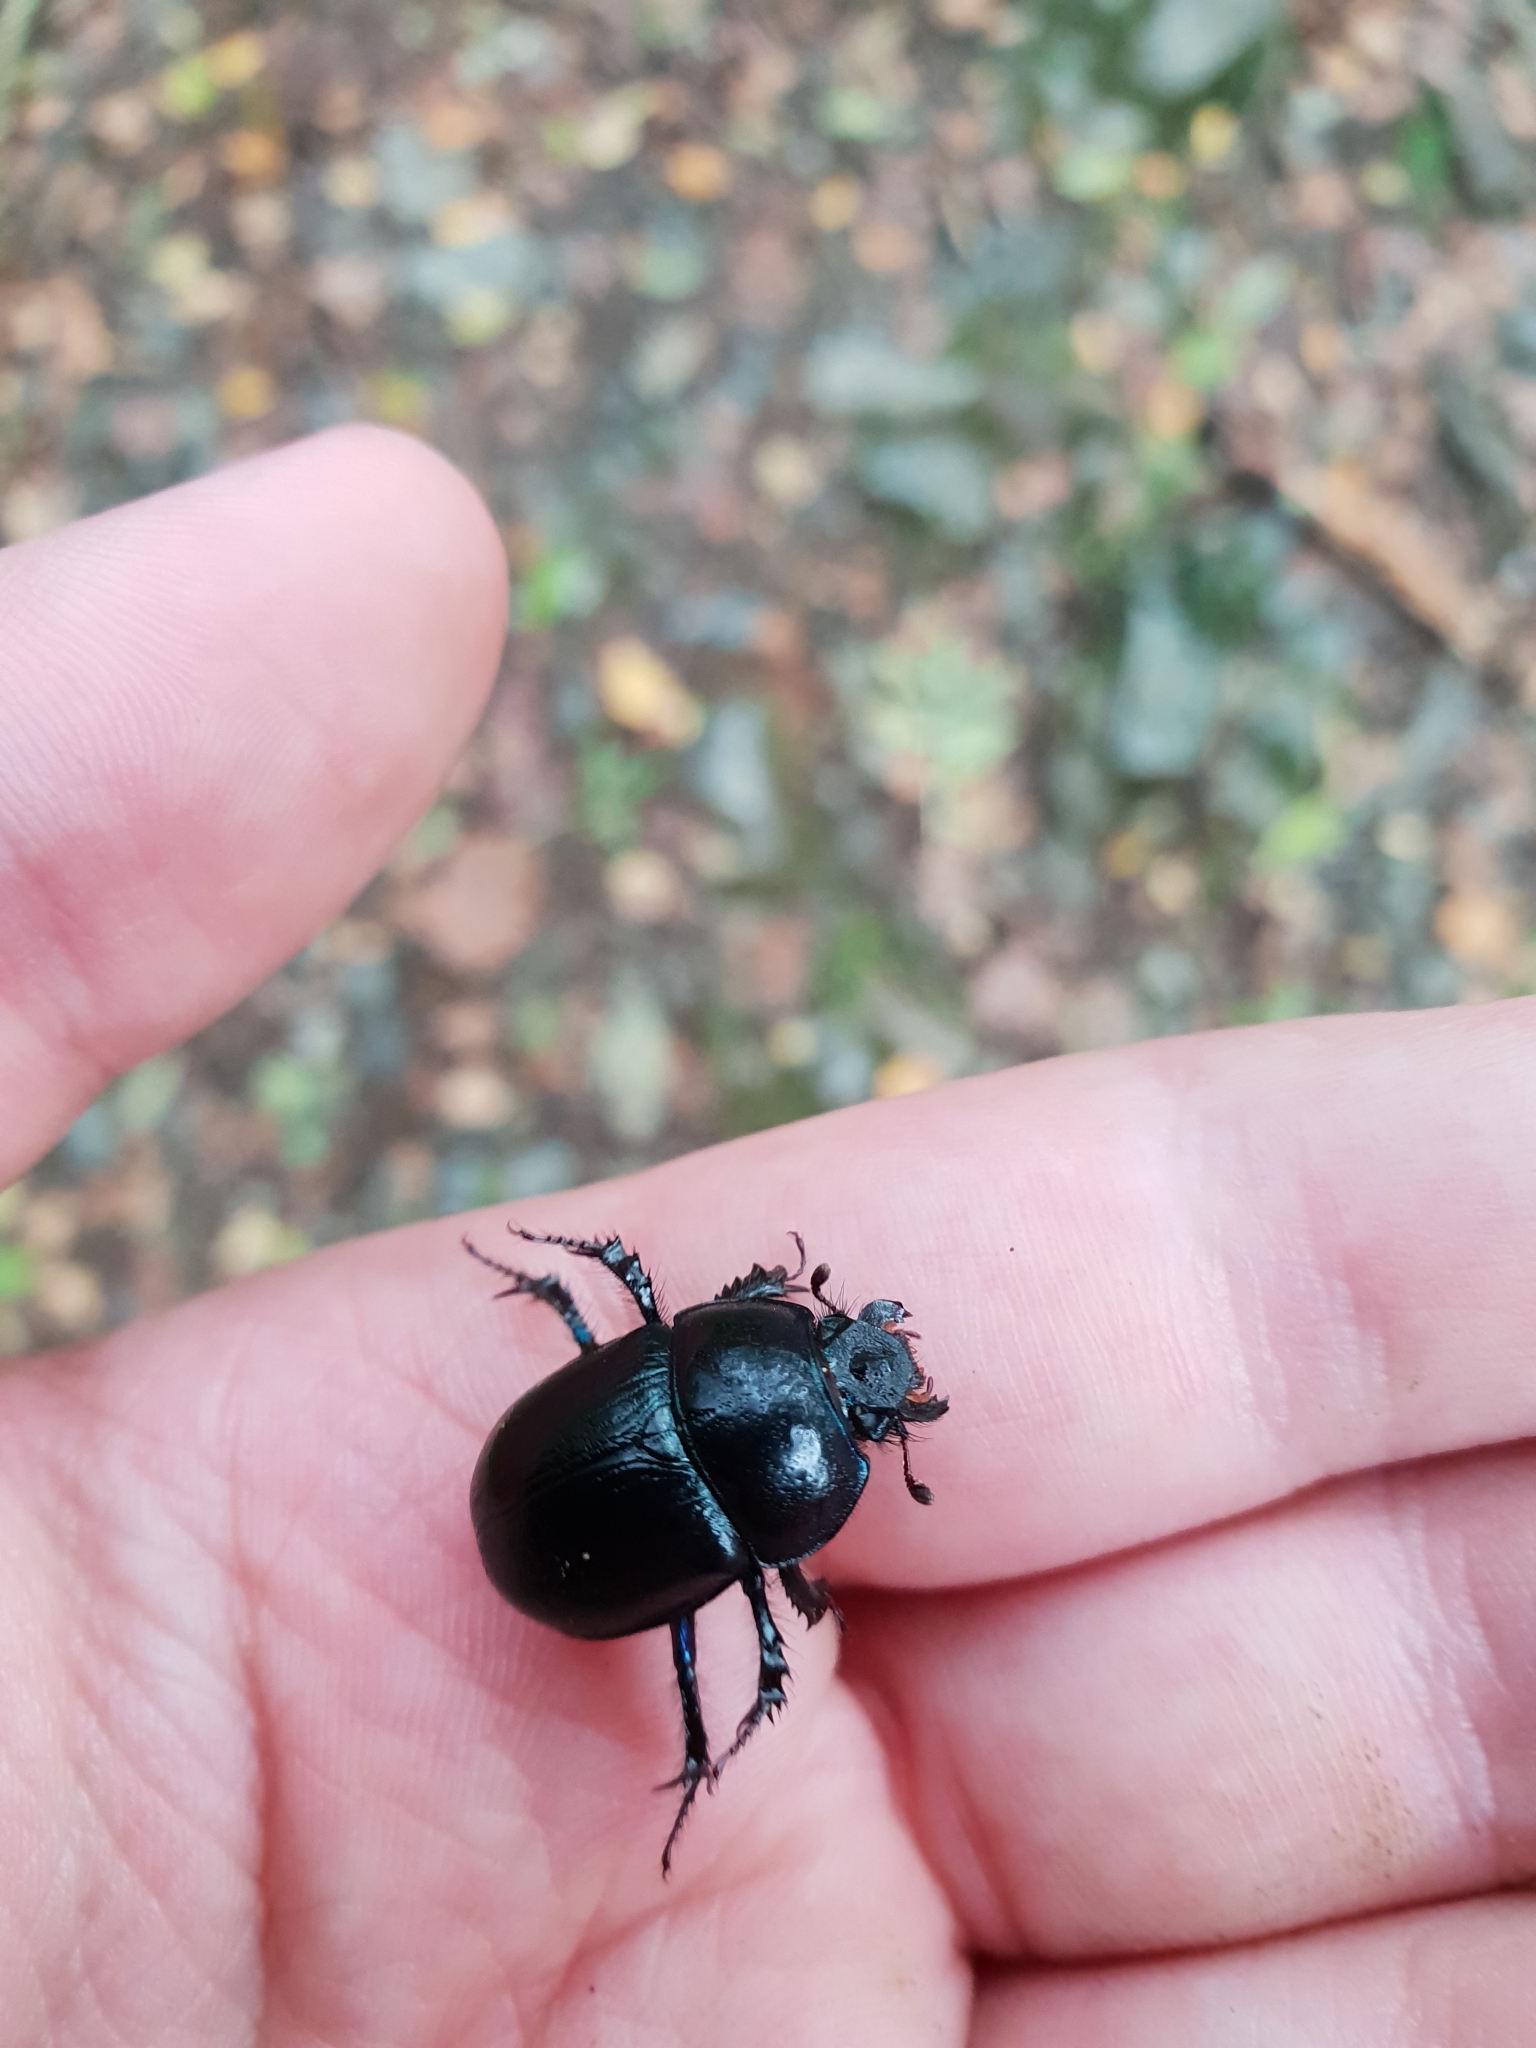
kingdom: Animalia
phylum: Arthropoda
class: Insecta
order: Coleoptera
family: Geotrupidae
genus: Anoplotrupes
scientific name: Anoplotrupes stercorosus
